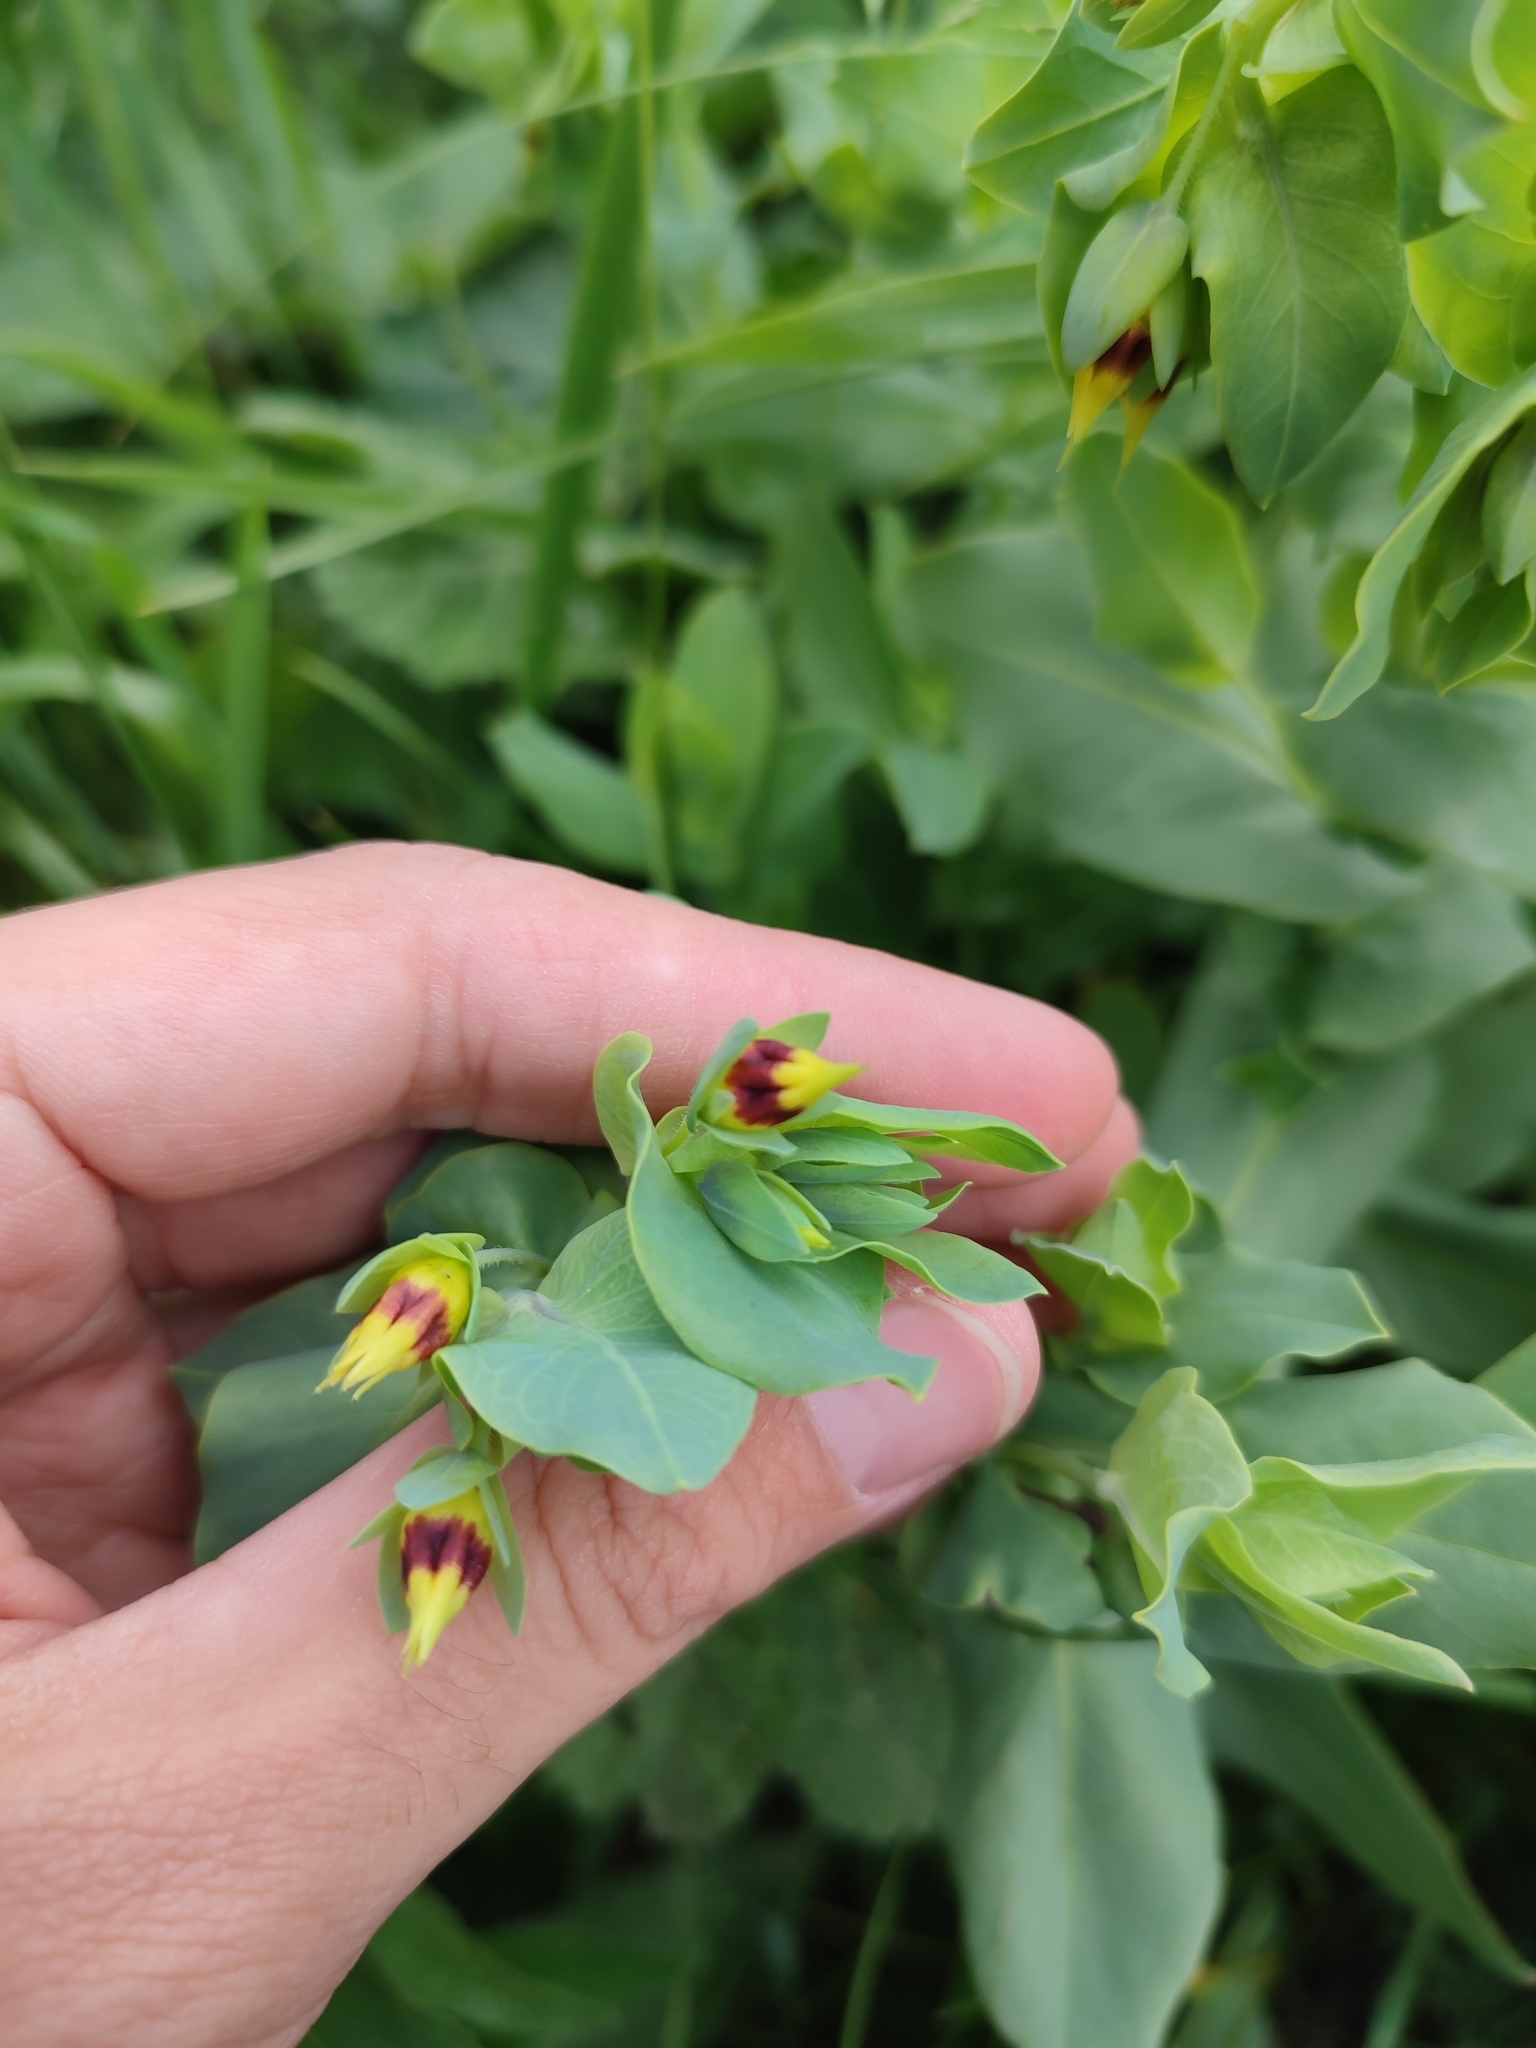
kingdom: Plantae
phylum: Tracheophyta
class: Magnoliopsida
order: Boraginales
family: Boraginaceae
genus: Cerinthe
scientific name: Cerinthe minor
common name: Lesser honeywort
